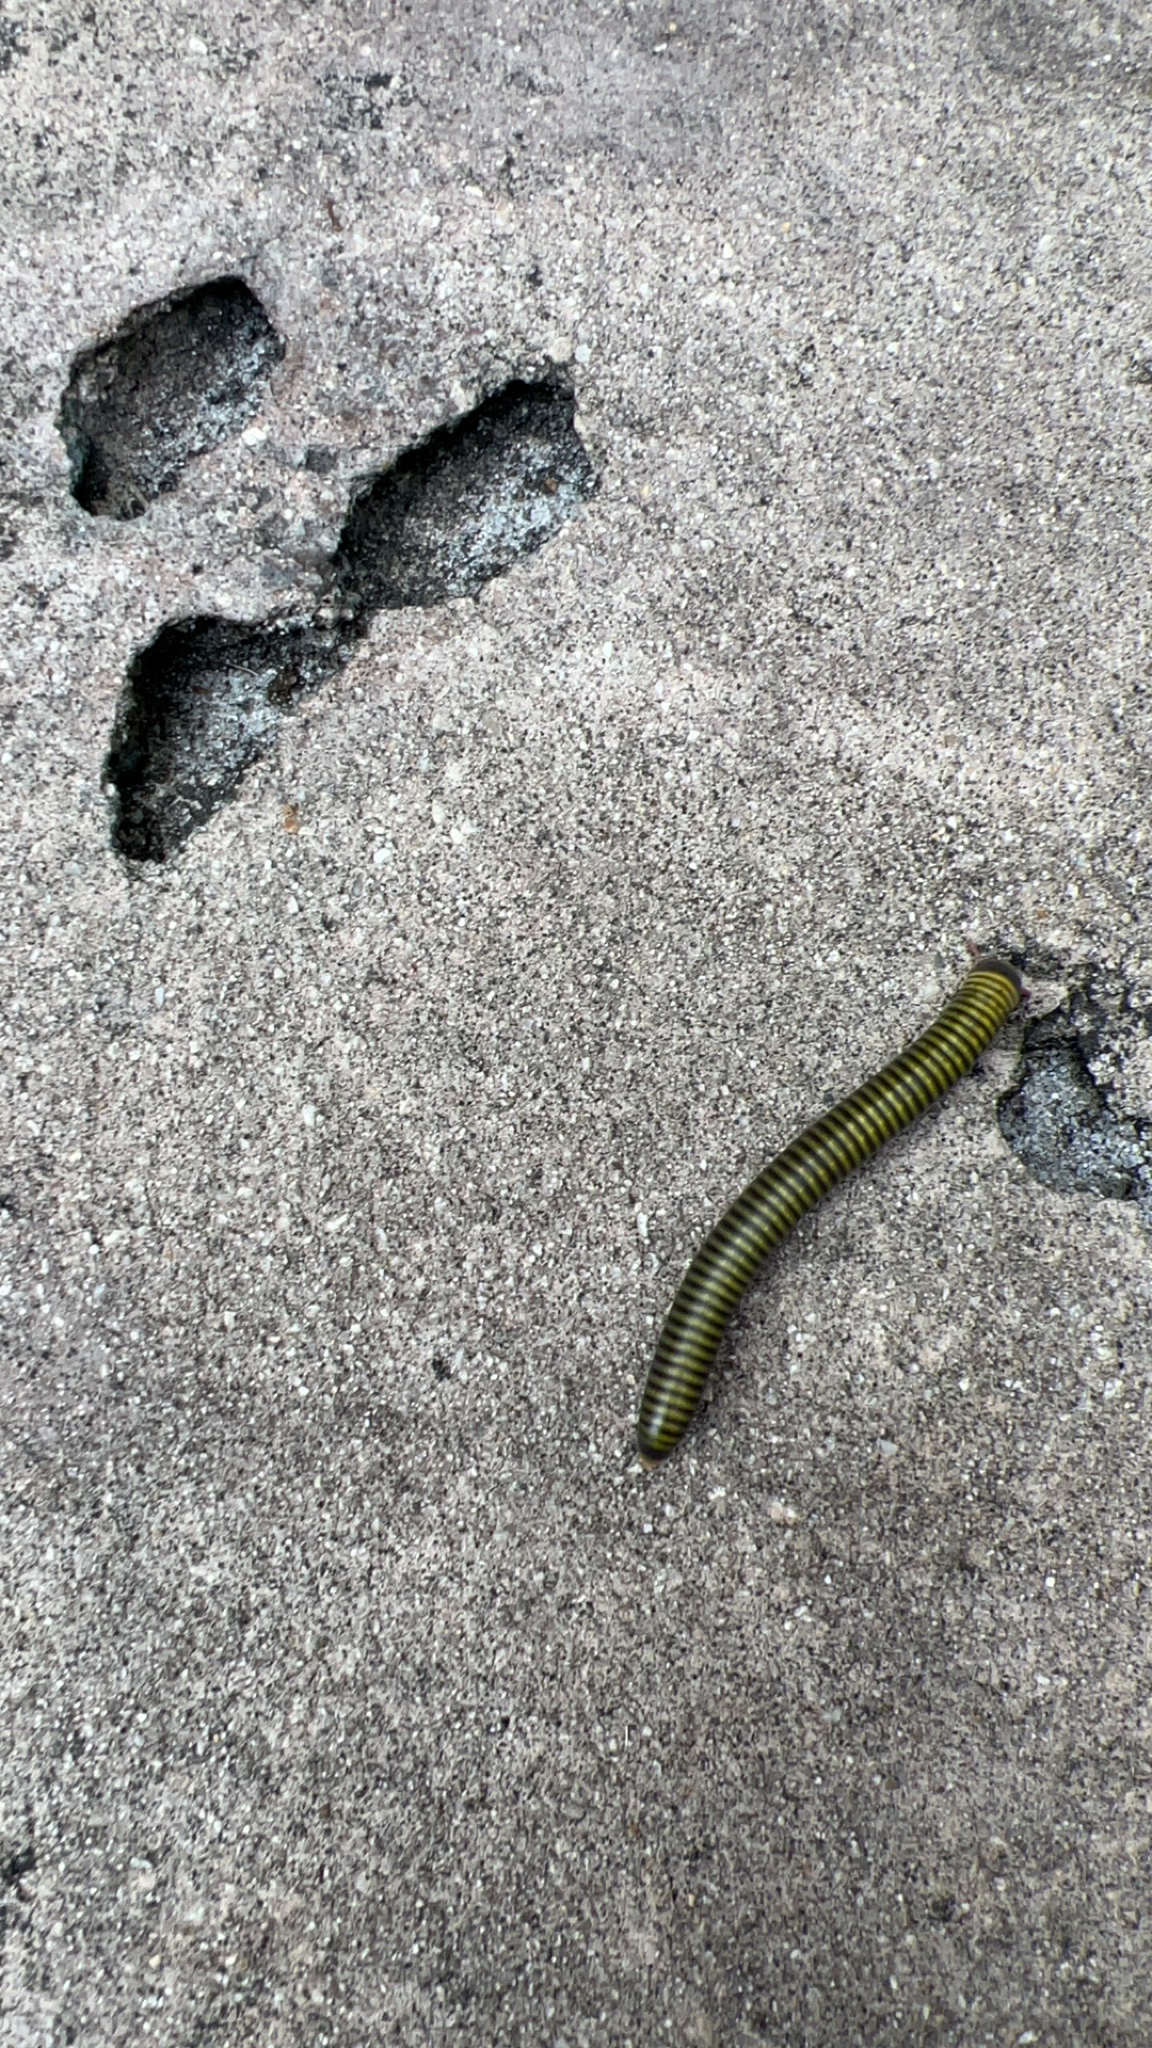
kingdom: Animalia
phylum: Arthropoda
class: Diplopoda
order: Spirobolida
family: Rhinocricidae
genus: Anadenobolus
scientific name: Anadenobolus monilicornis
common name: Caribbean millipede
